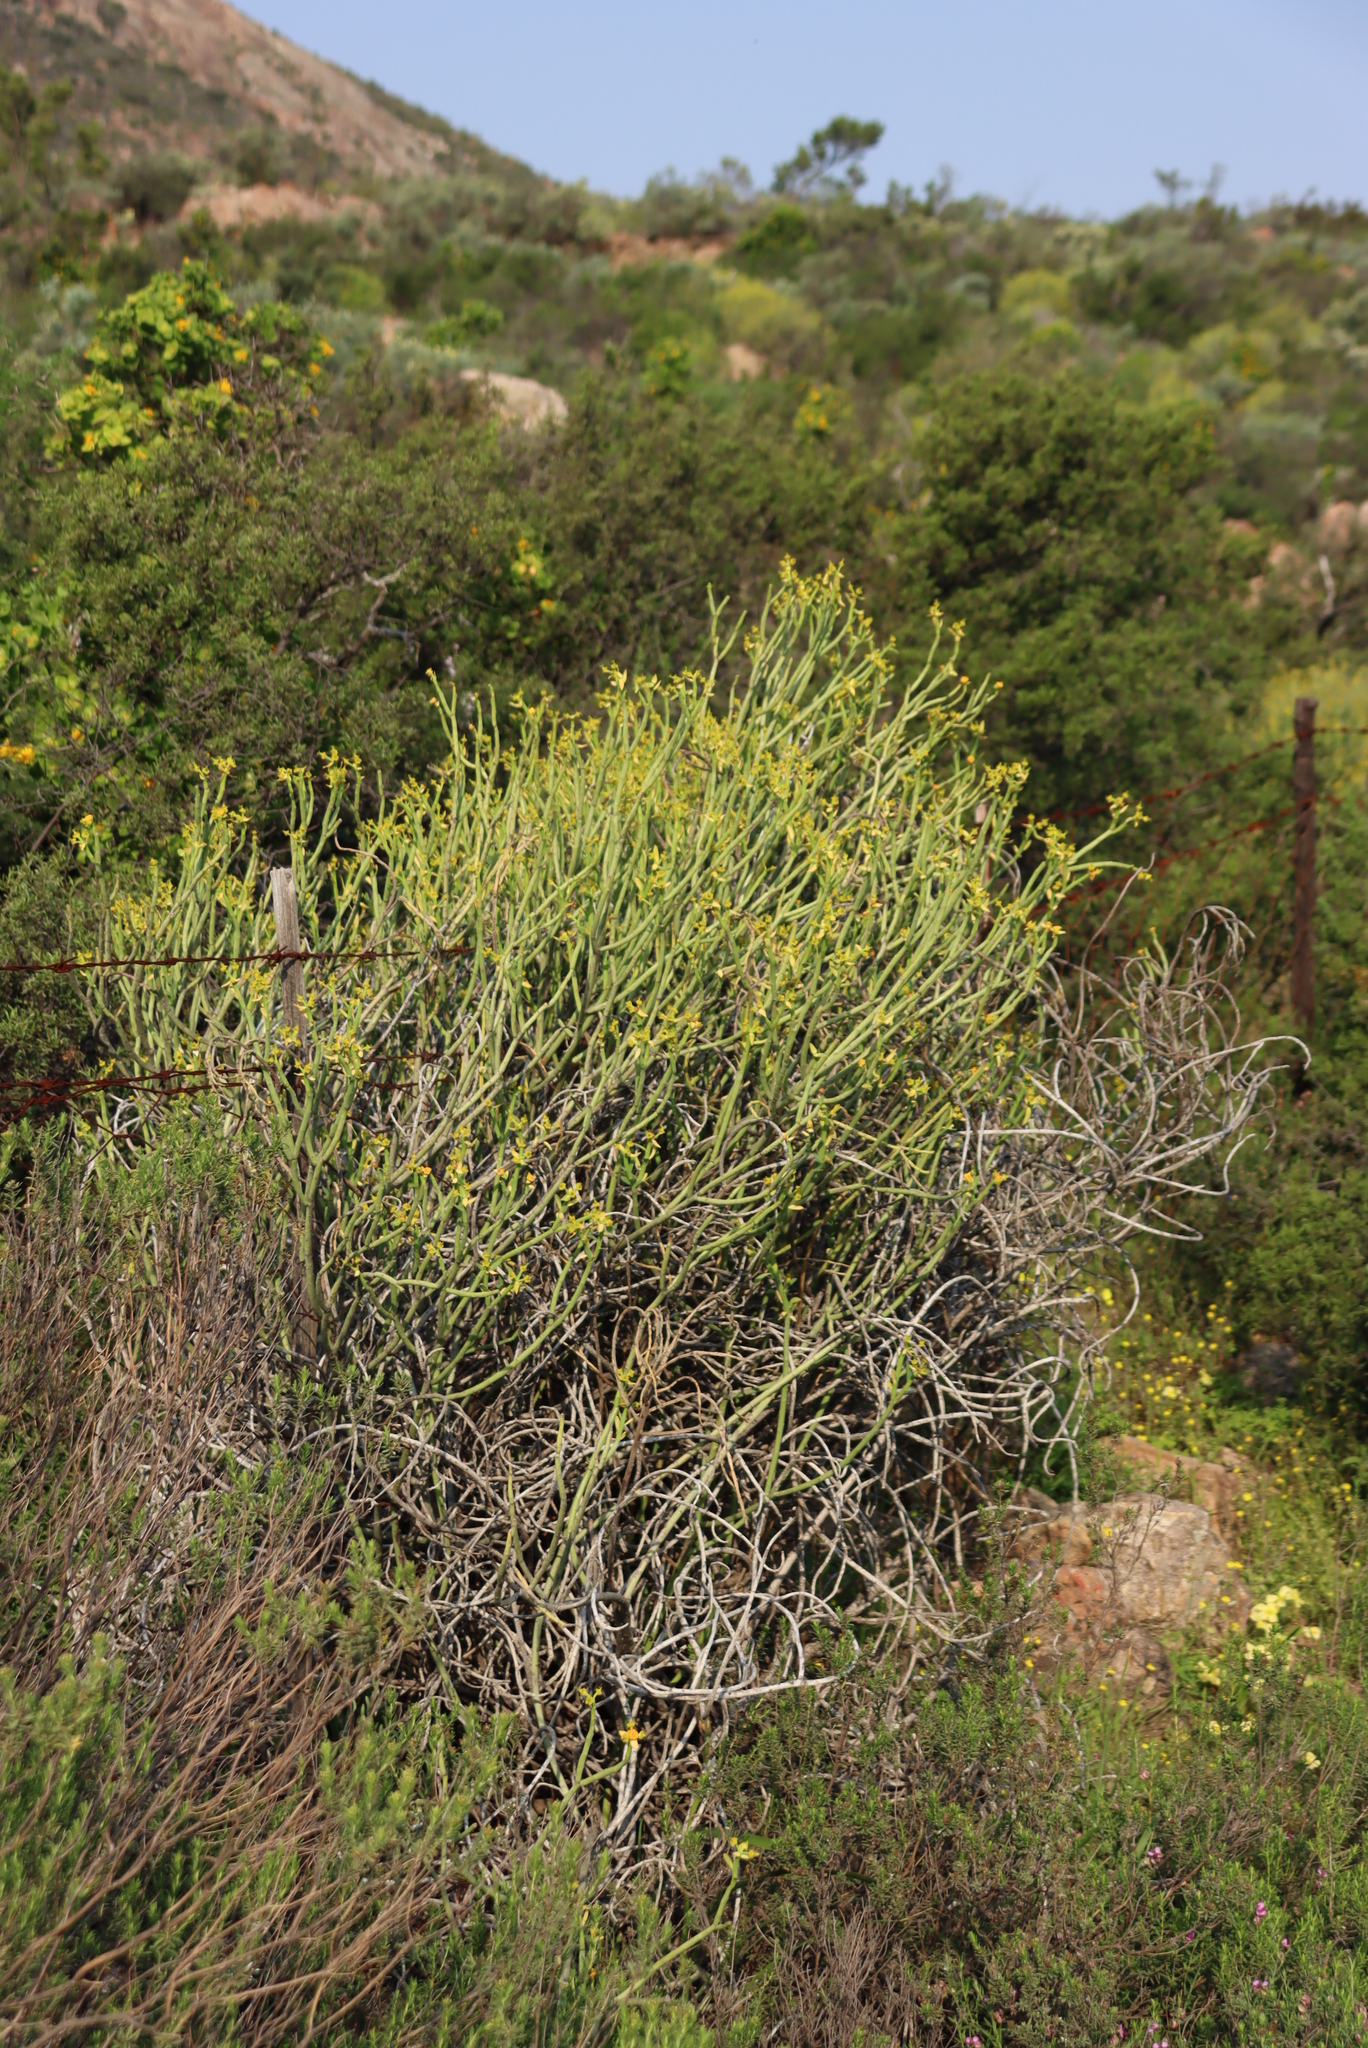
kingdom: Plantae
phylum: Tracheophyta
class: Magnoliopsida
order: Malpighiales
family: Euphorbiaceae
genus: Euphorbia
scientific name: Euphorbia mauritanica
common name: Jackal's-food
